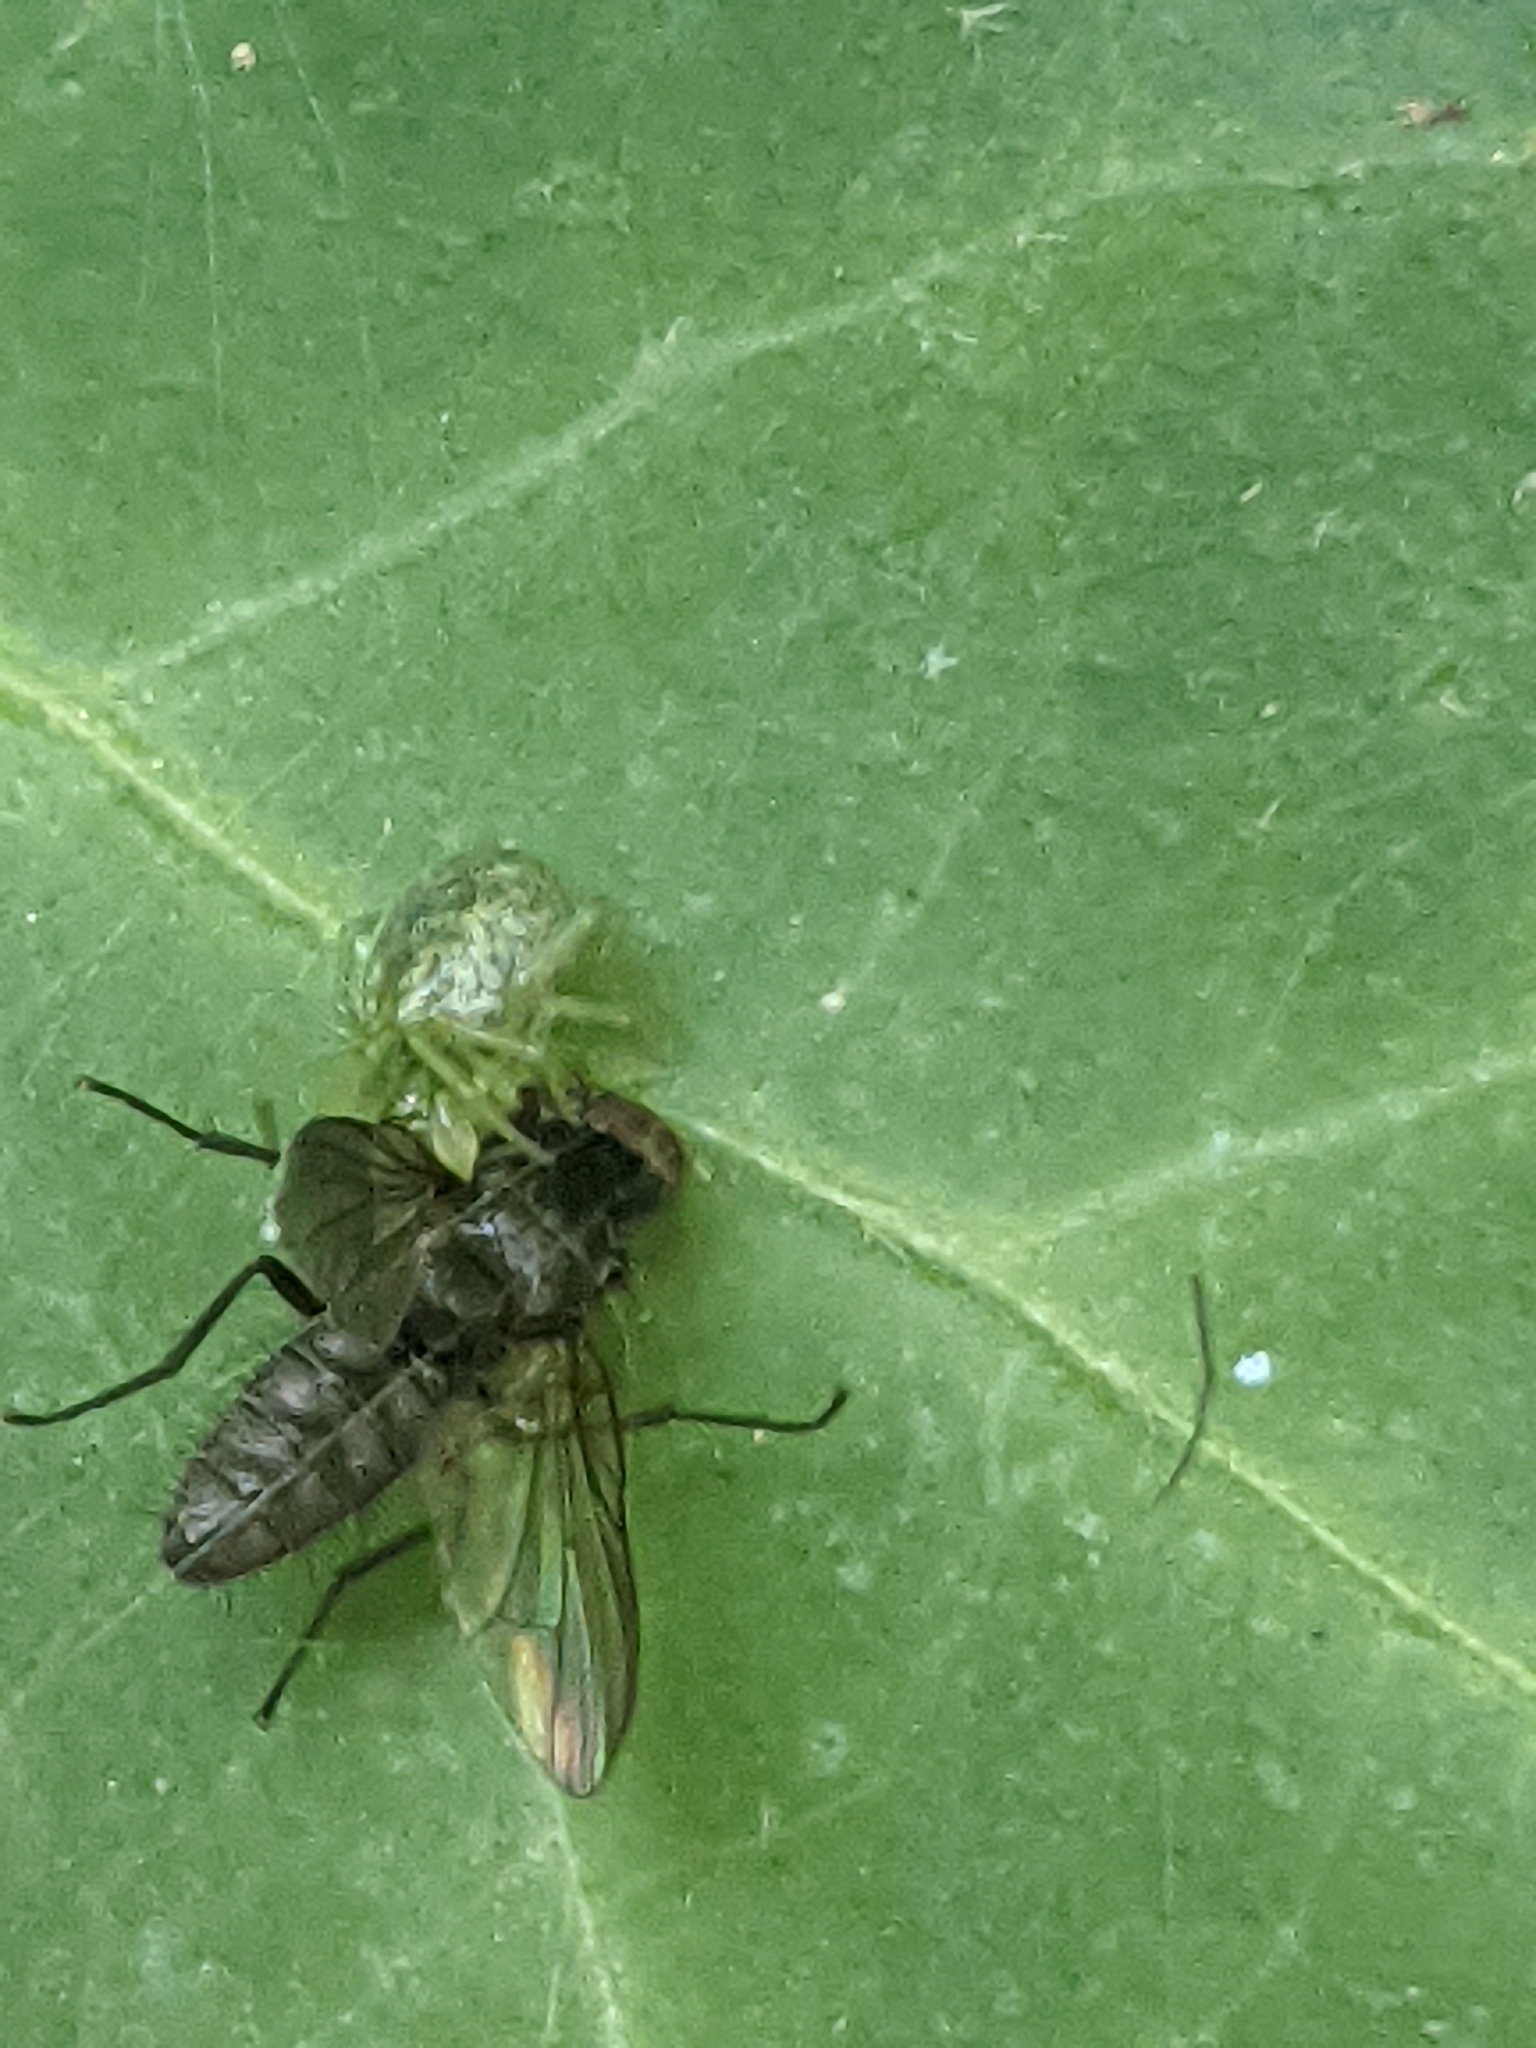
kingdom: Animalia
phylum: Arthropoda
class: Arachnida
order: Araneae
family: Dictynidae
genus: Nigma
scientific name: Nigma walckenaeri
